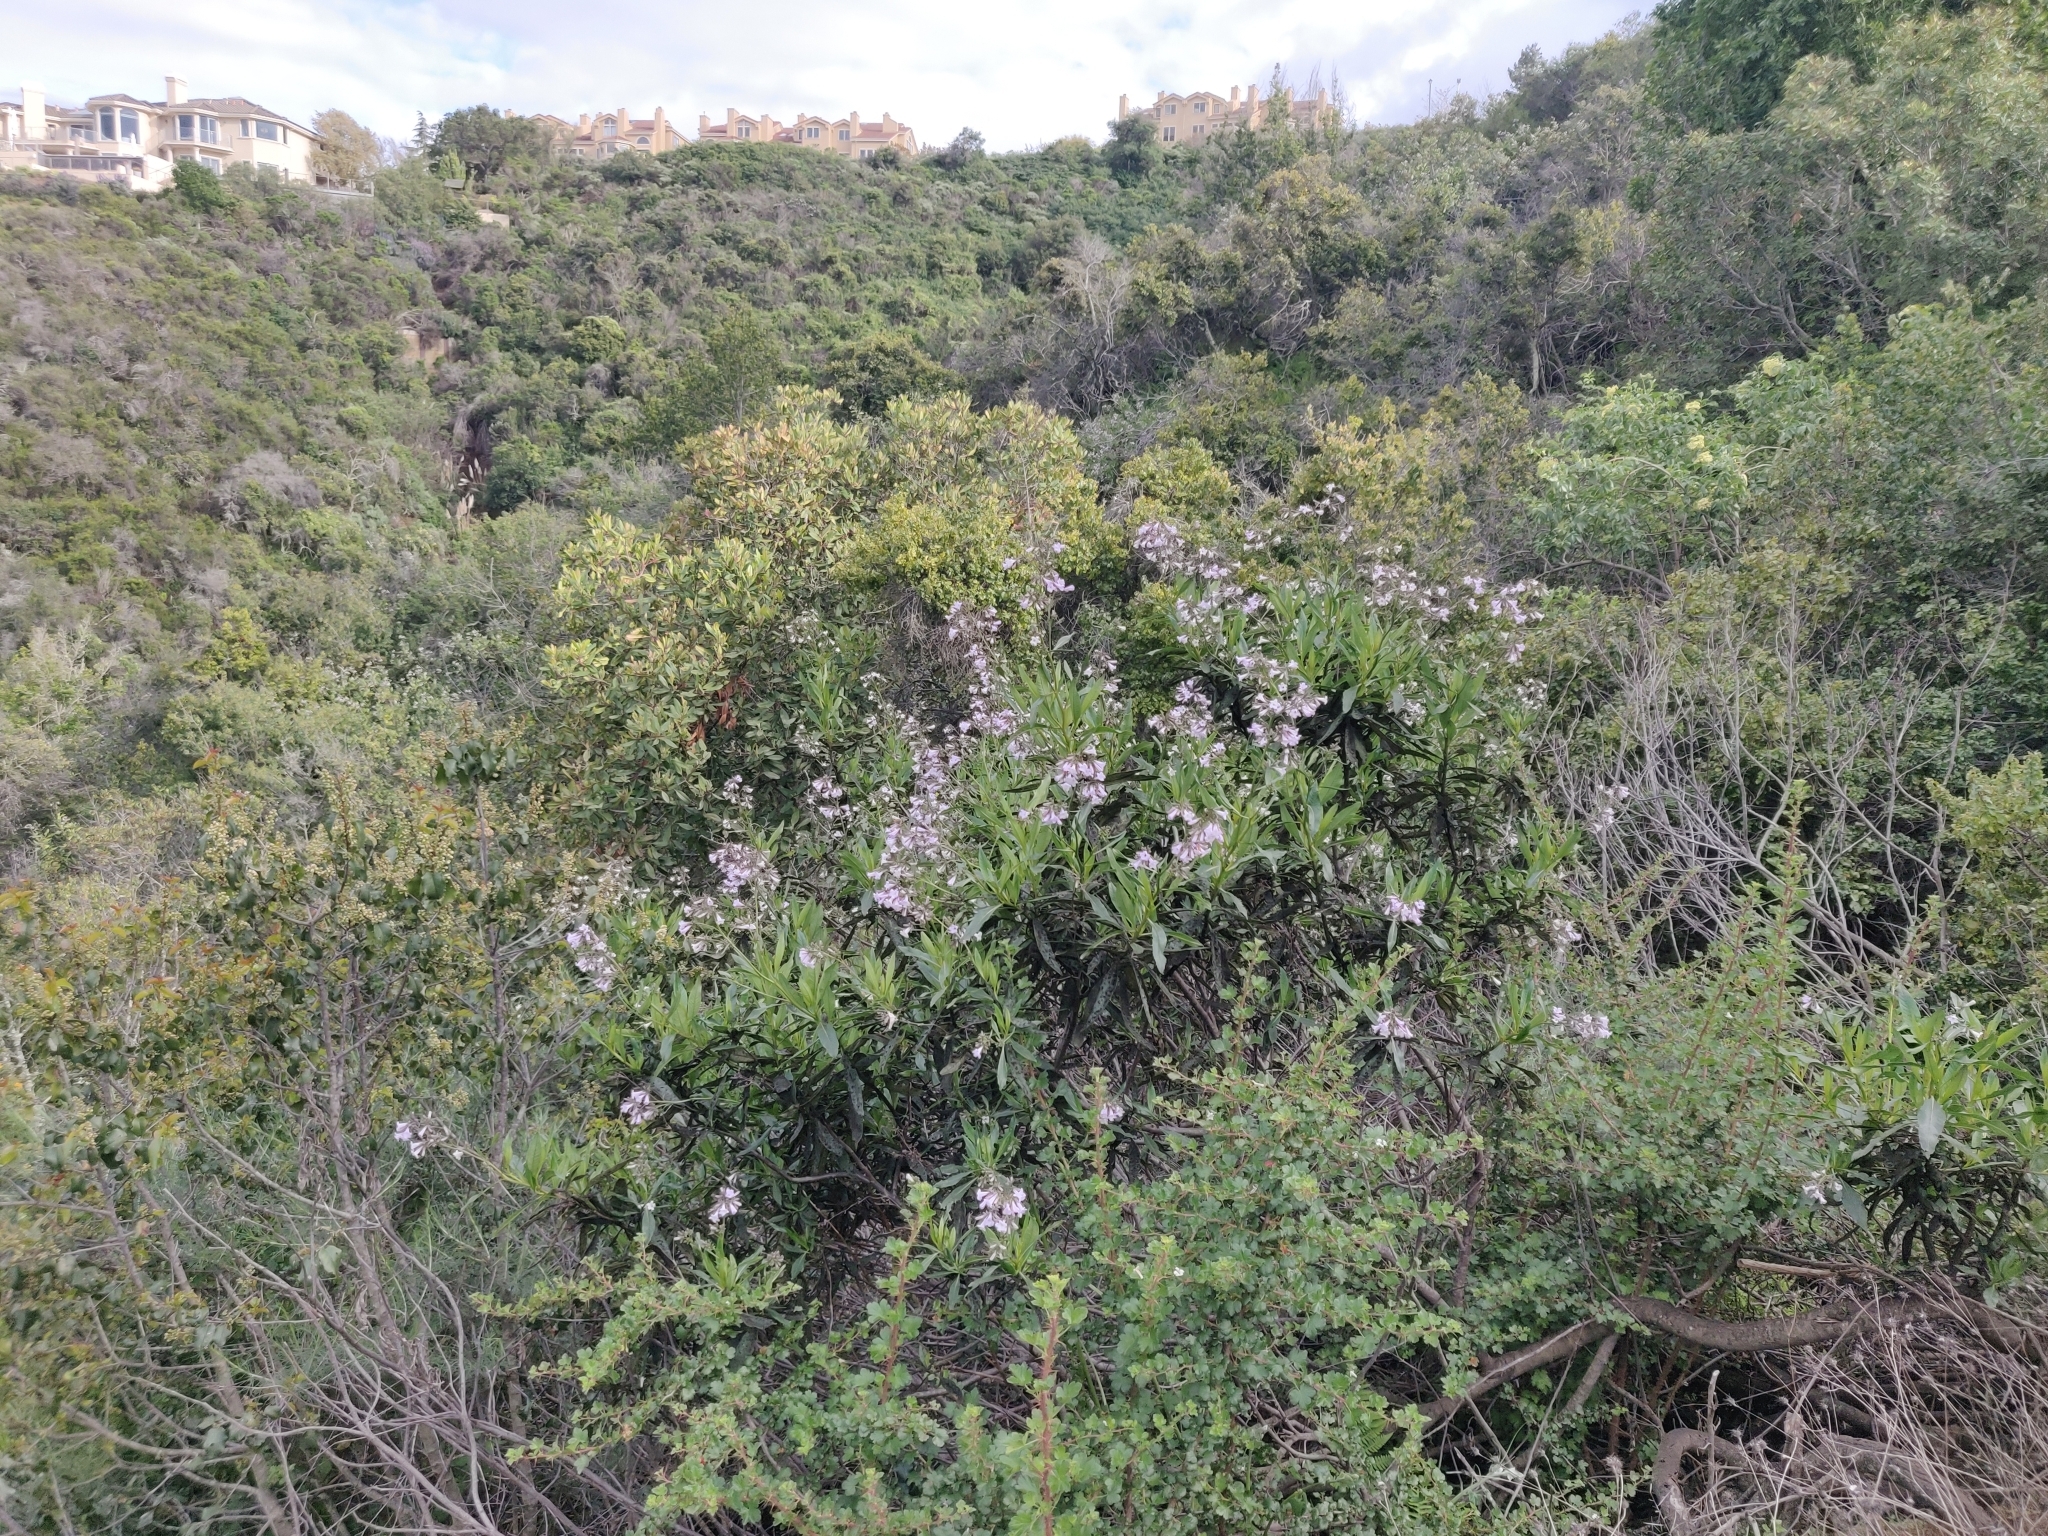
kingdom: Plantae
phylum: Tracheophyta
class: Magnoliopsida
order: Boraginales
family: Namaceae
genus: Eriodictyon
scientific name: Eriodictyon californicum
